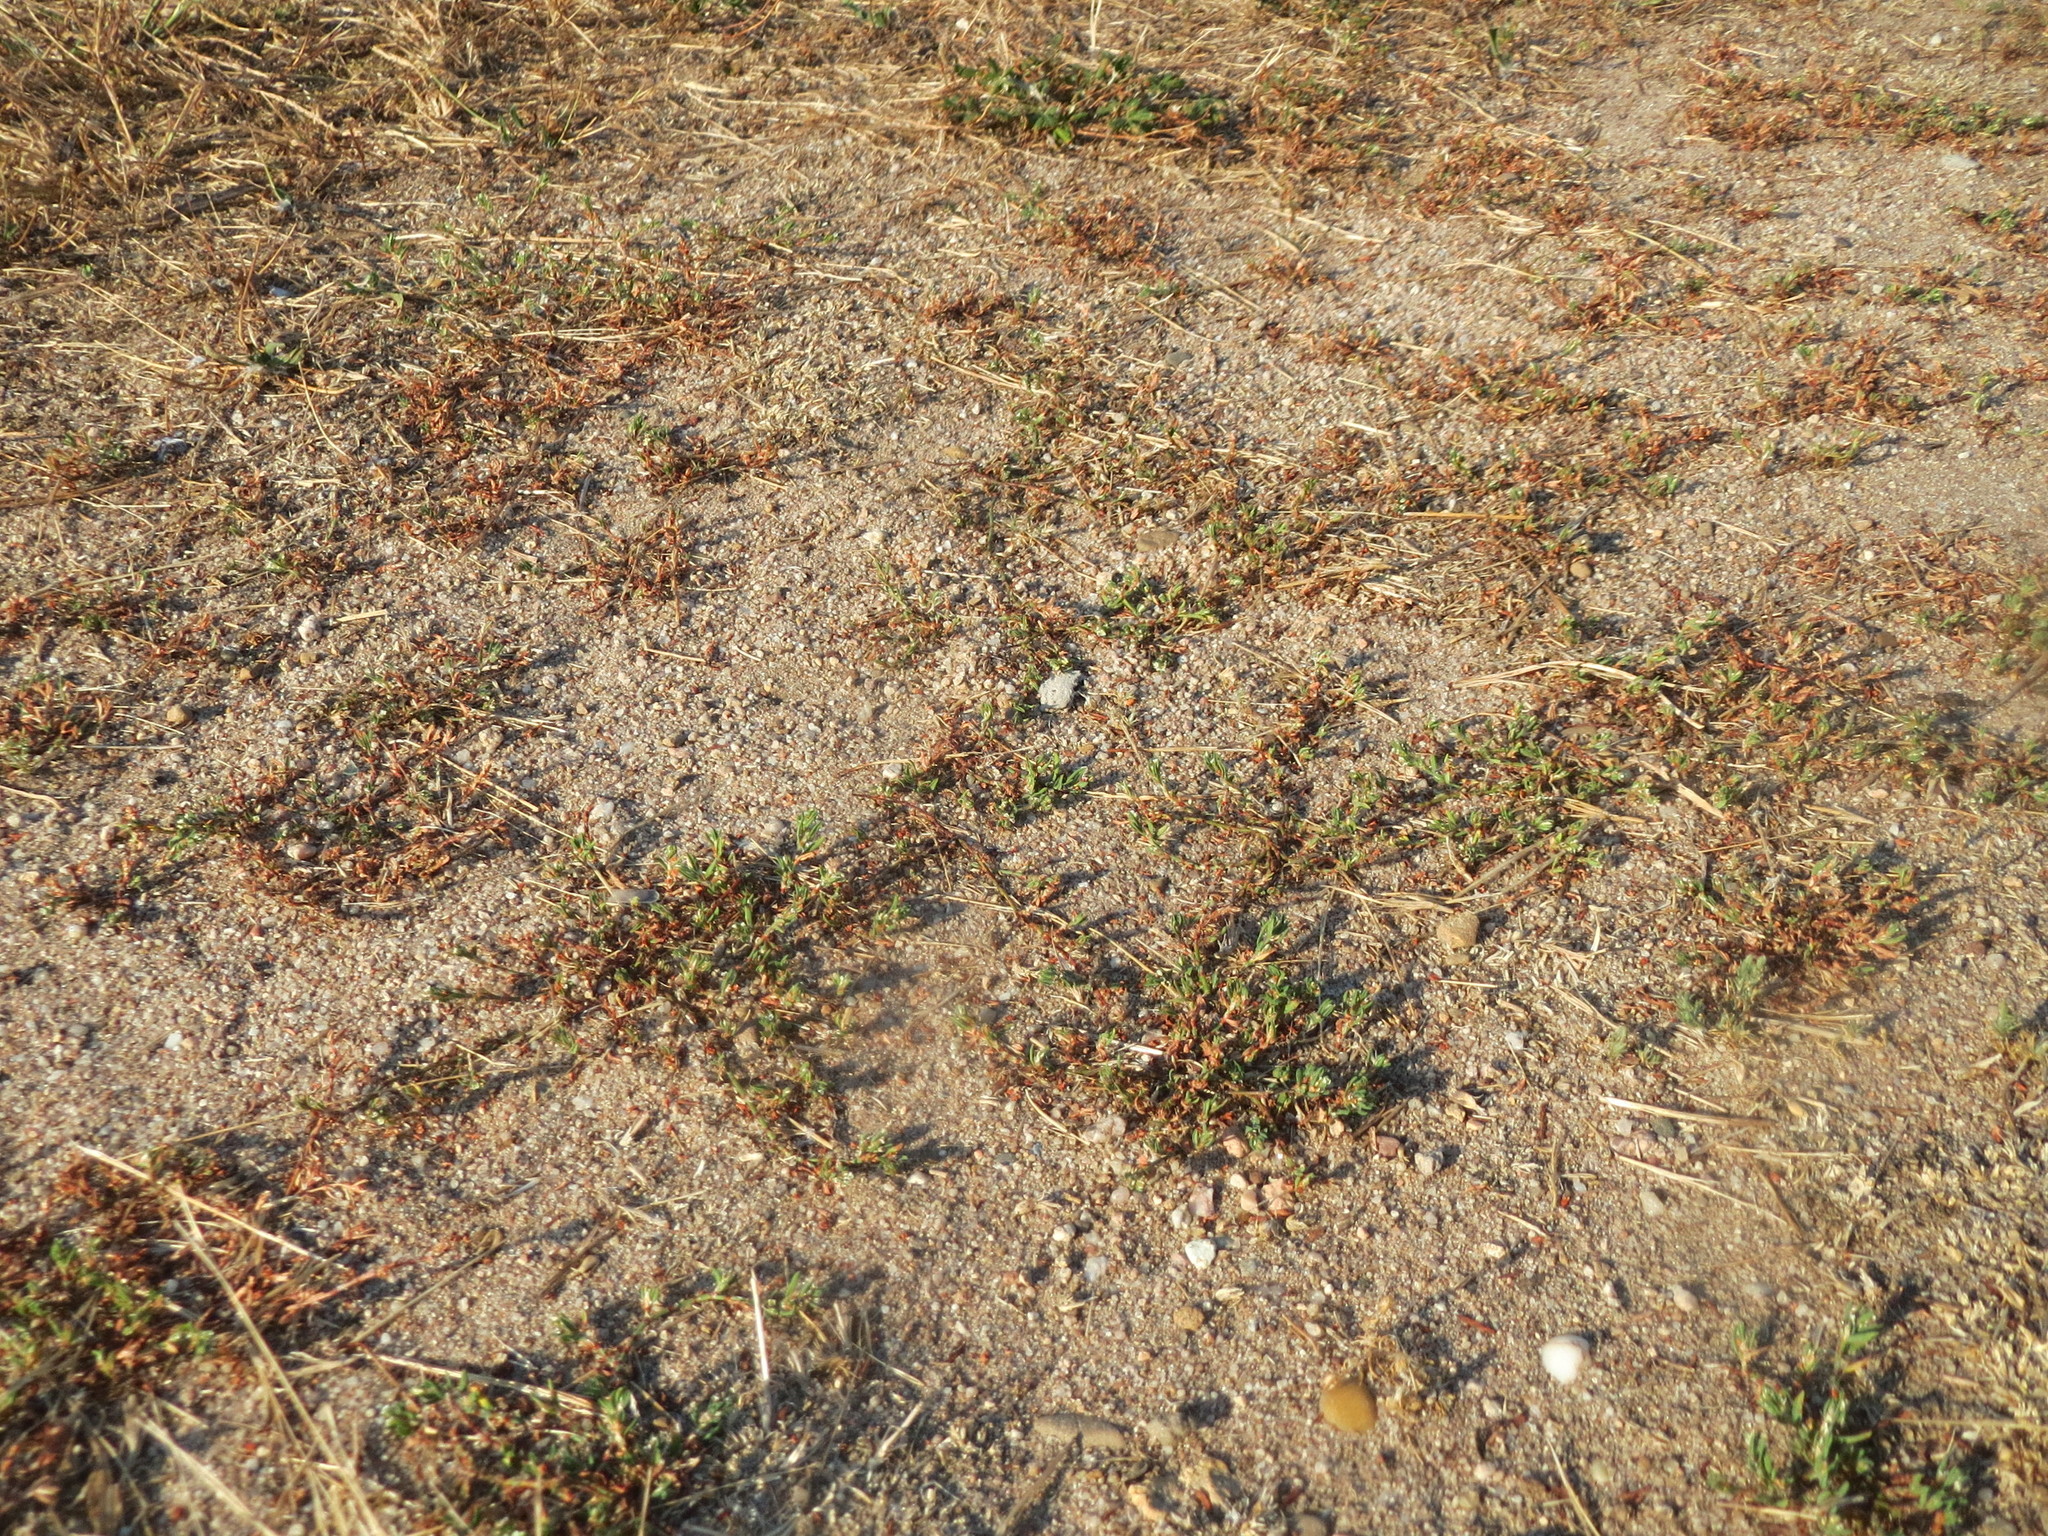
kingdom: Plantae
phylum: Tracheophyta
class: Magnoliopsida
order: Caryophyllales
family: Polygonaceae
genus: Polygonum
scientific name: Polygonum arenastrum
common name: Equal-leaved knotgrass
